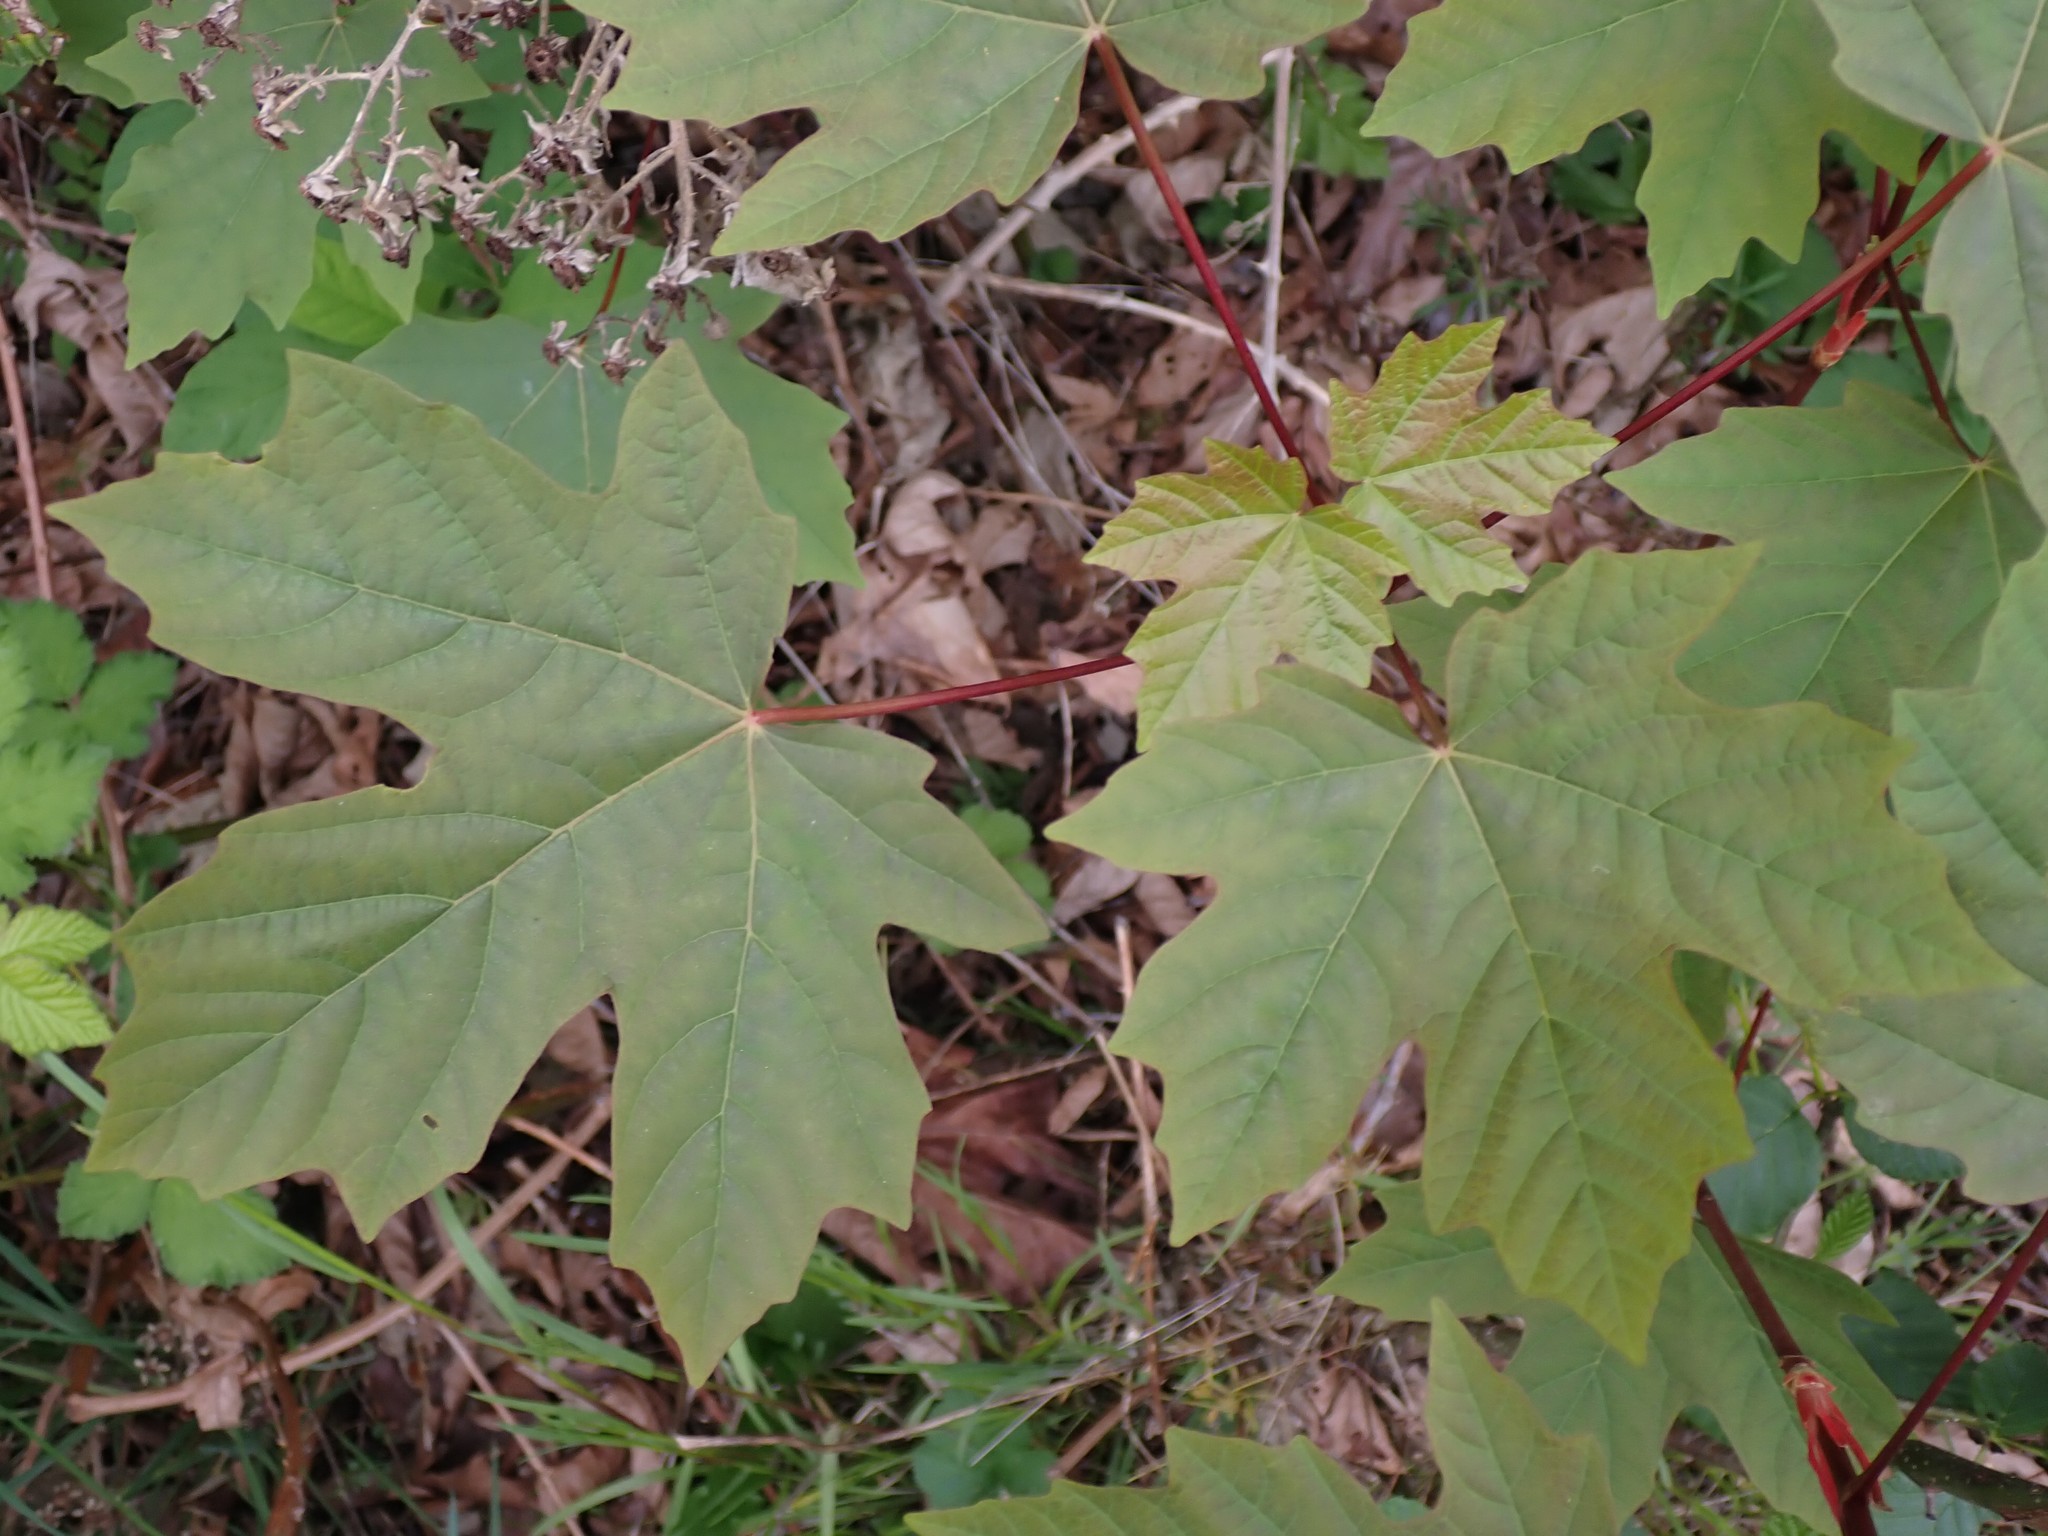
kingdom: Plantae
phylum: Tracheophyta
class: Magnoliopsida
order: Sapindales
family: Sapindaceae
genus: Acer
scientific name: Acer macrophyllum
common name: Oregon maple
